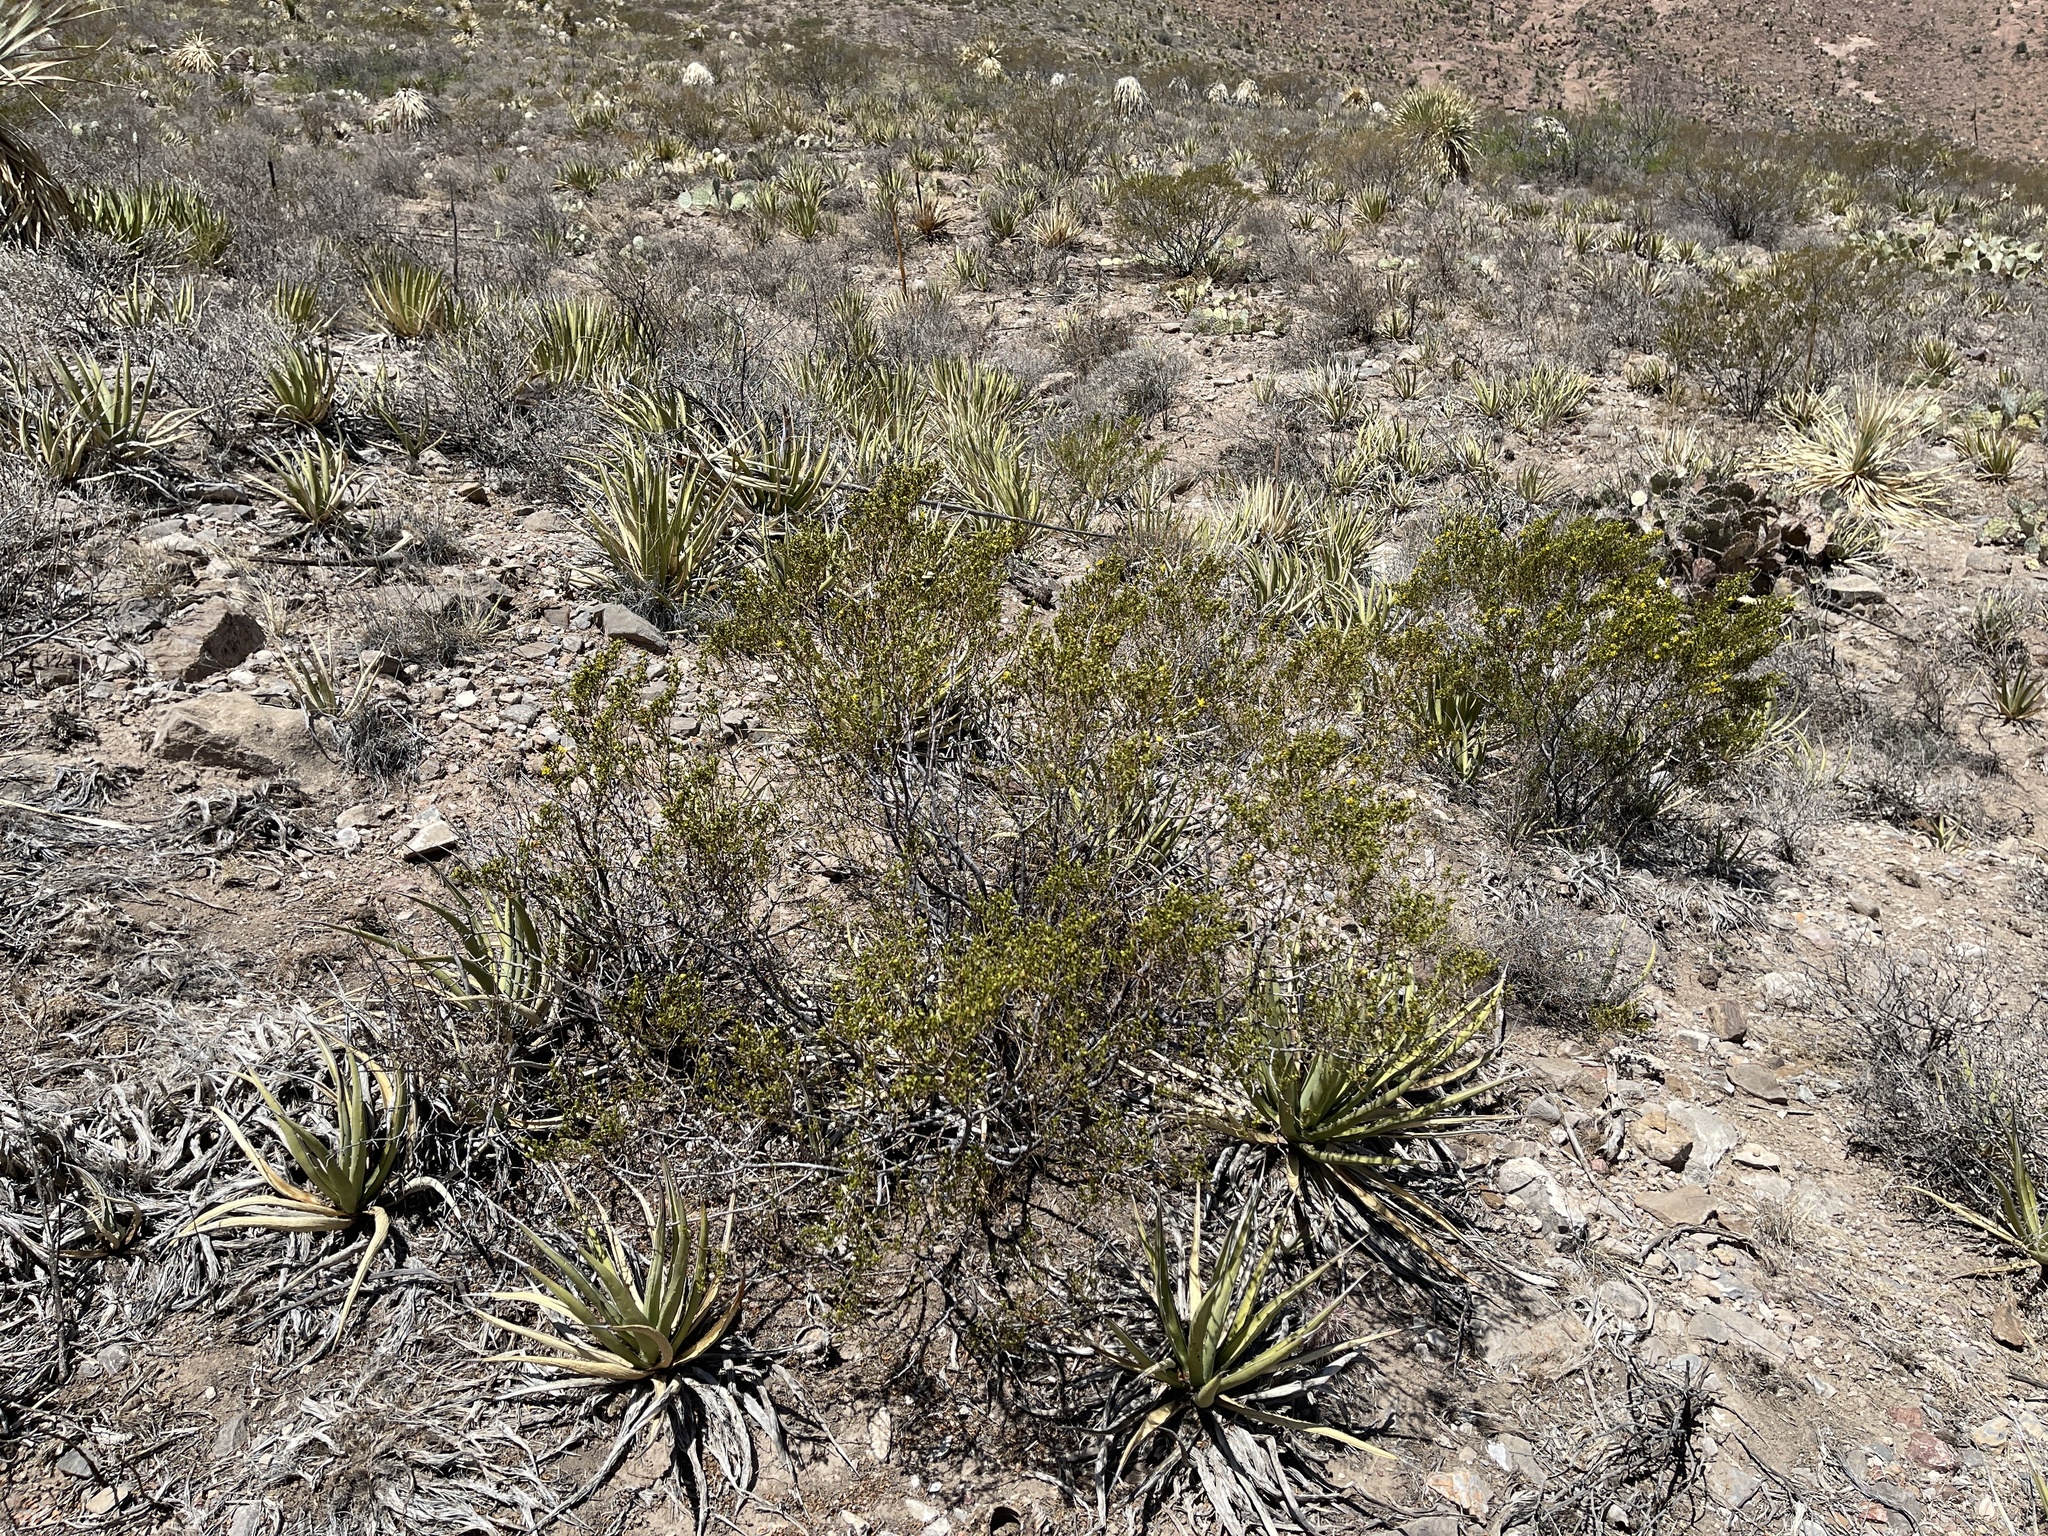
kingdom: Plantae
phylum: Tracheophyta
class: Magnoliopsida
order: Zygophyllales
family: Zygophyllaceae
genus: Larrea
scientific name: Larrea tridentata
